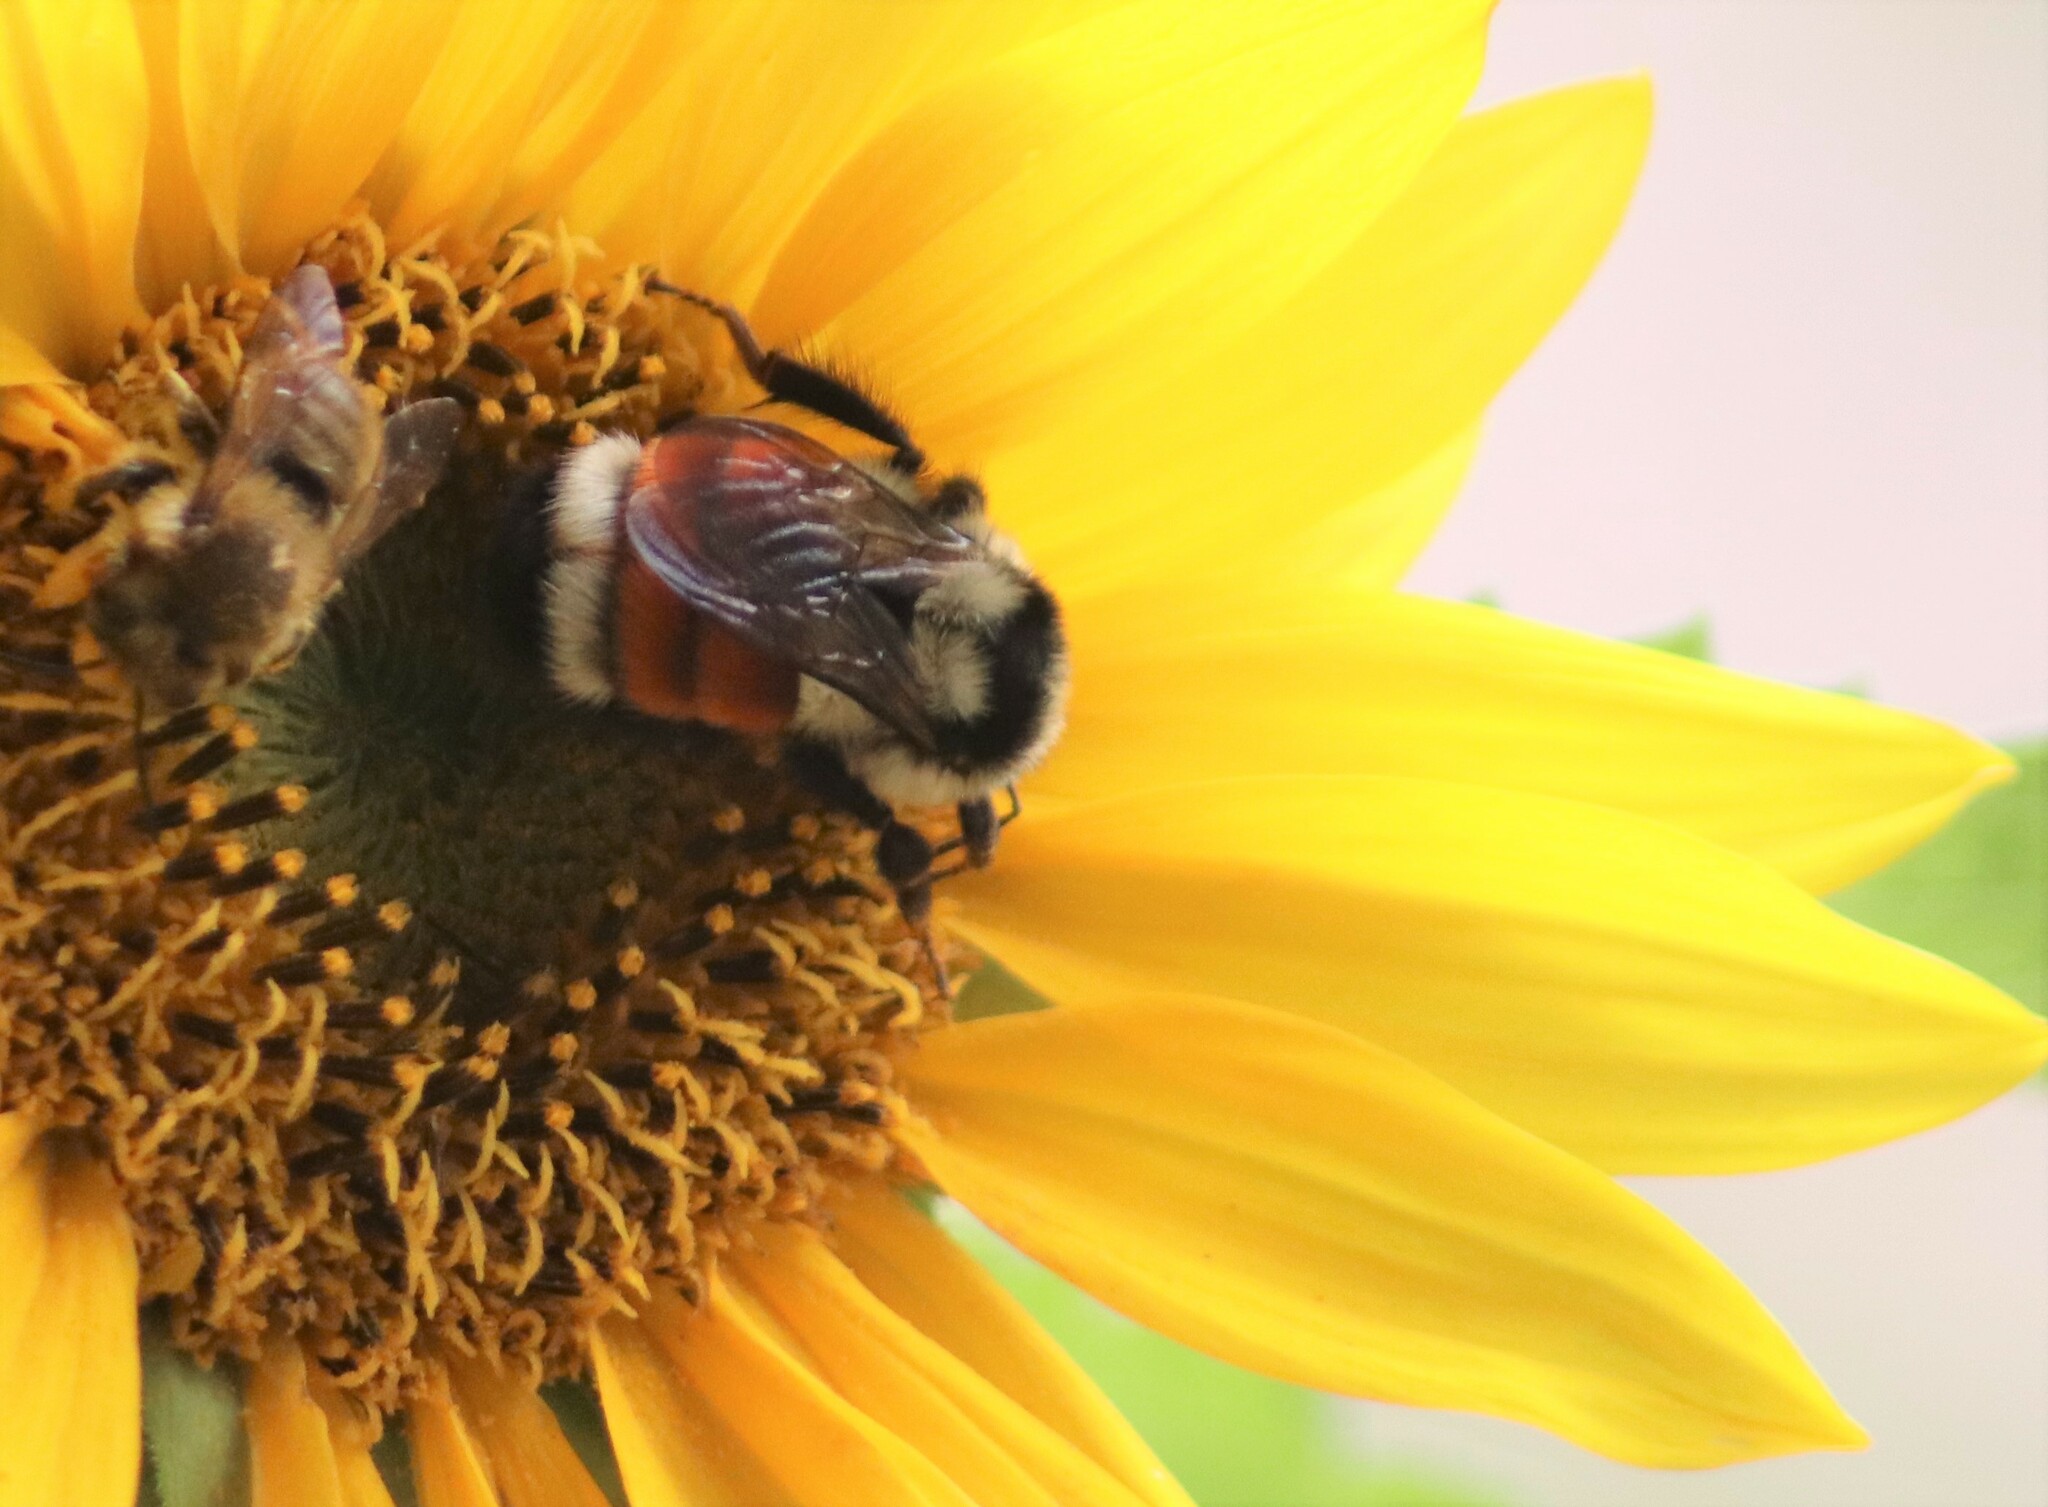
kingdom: Animalia
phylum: Arthropoda
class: Insecta
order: Hymenoptera
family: Apidae
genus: Bombus
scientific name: Bombus ternarius
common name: Tri-colored bumble bee
